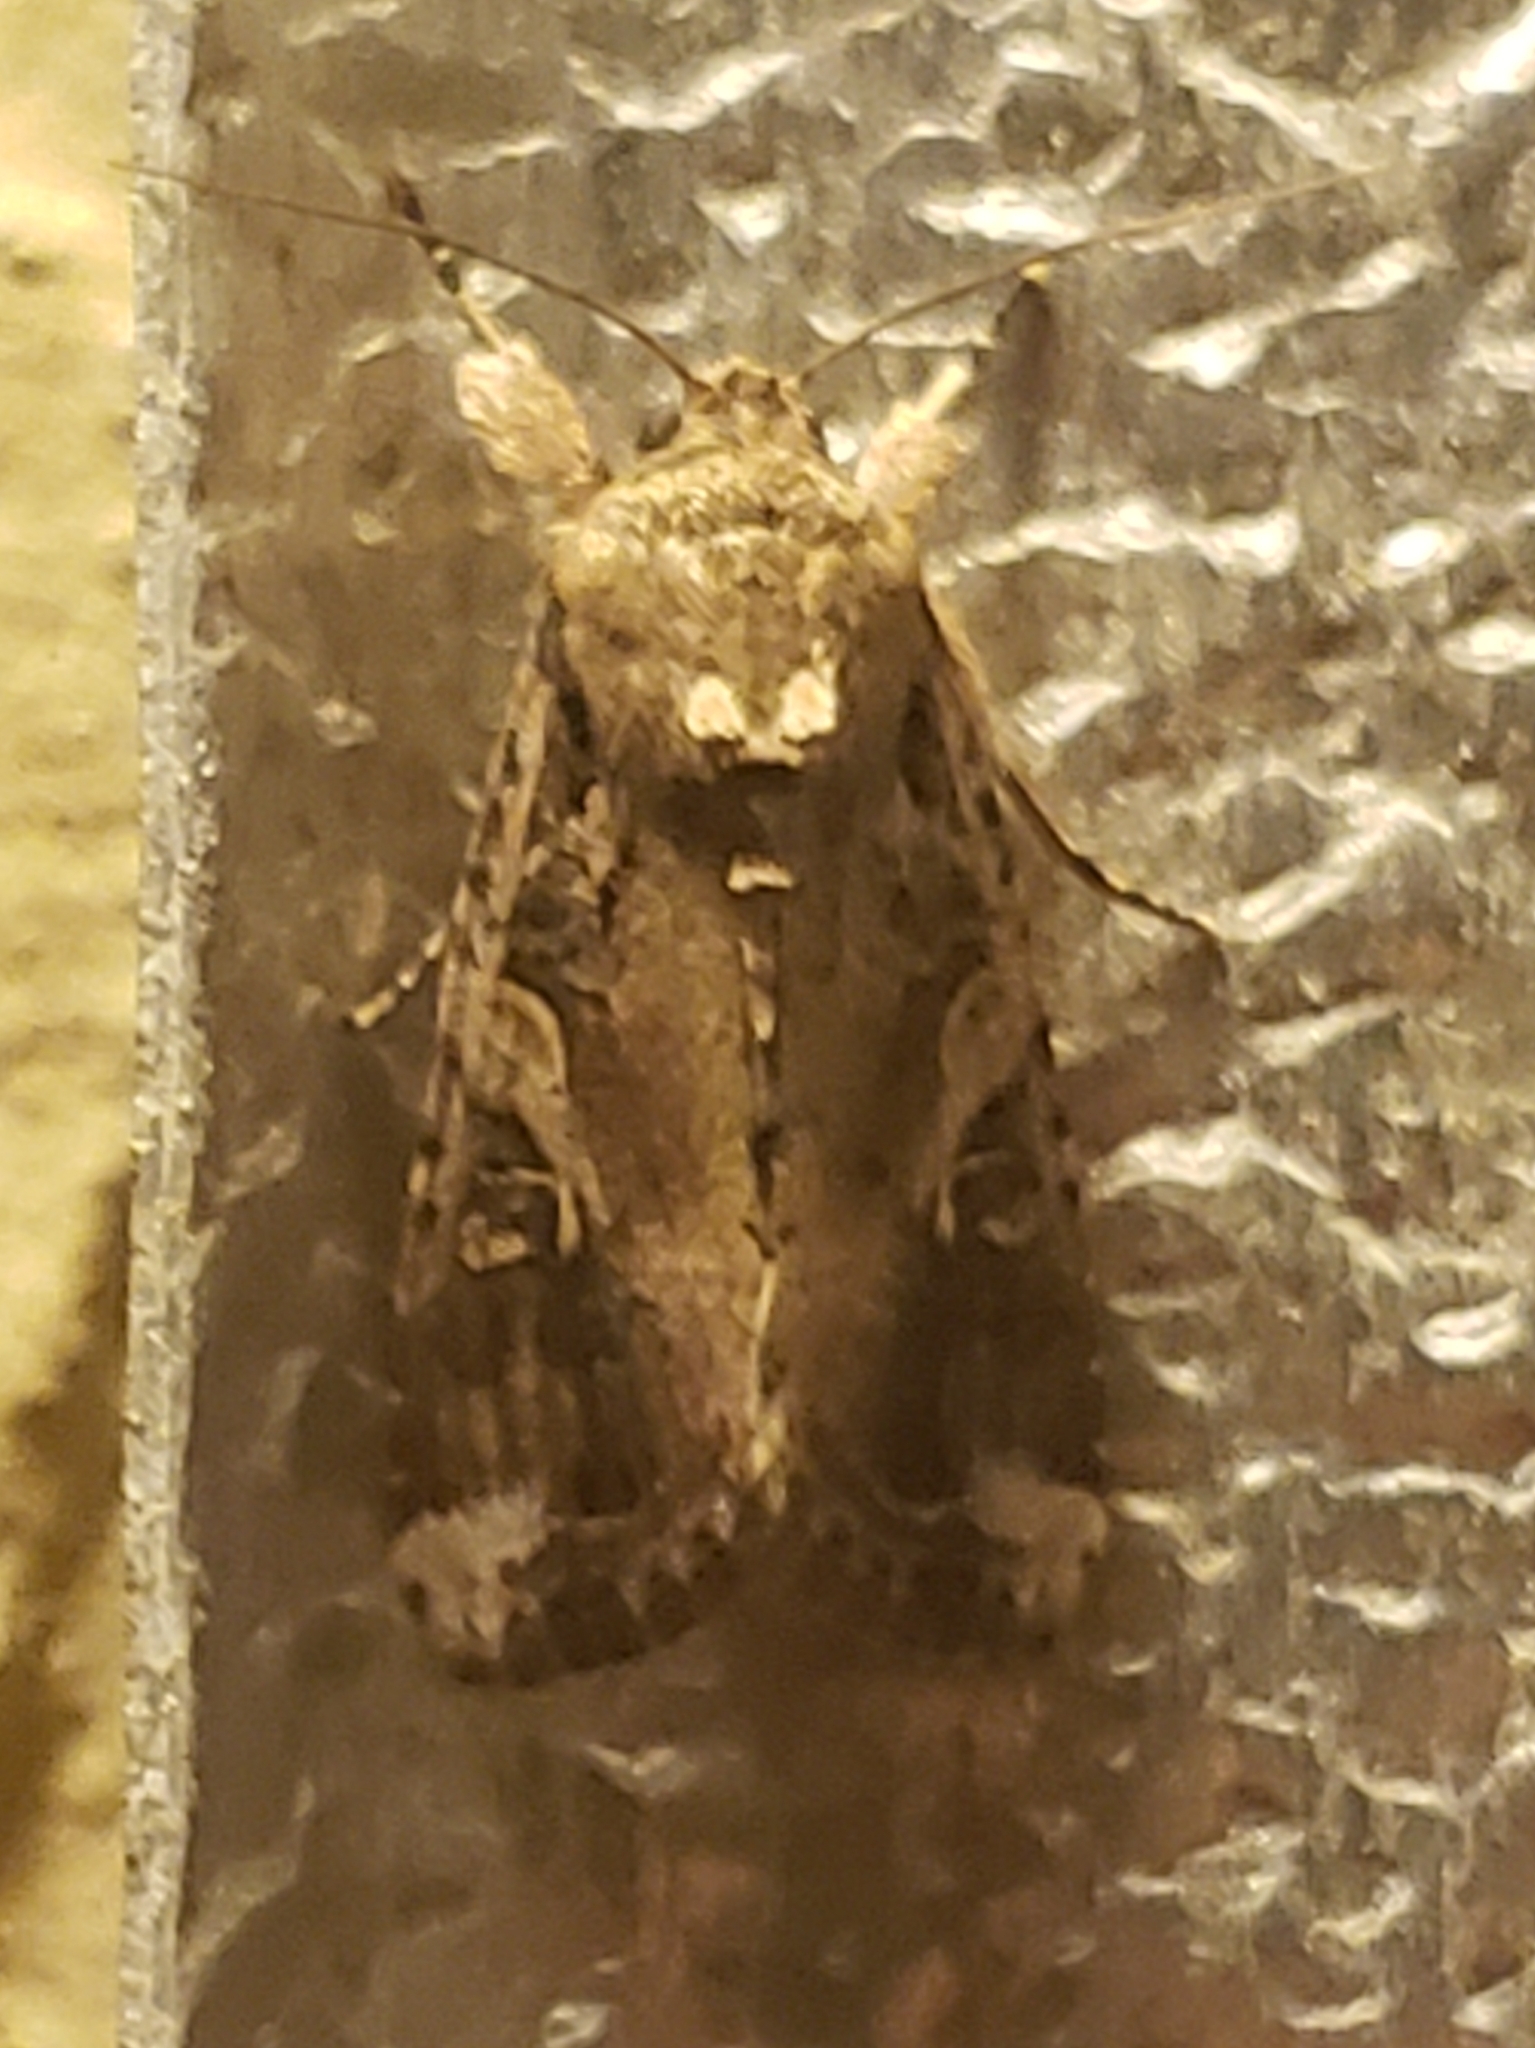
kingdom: Animalia
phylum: Arthropoda
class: Insecta
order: Lepidoptera
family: Noctuidae
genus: Spodoptera
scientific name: Spodoptera frugiperda
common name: Fall armyworm
